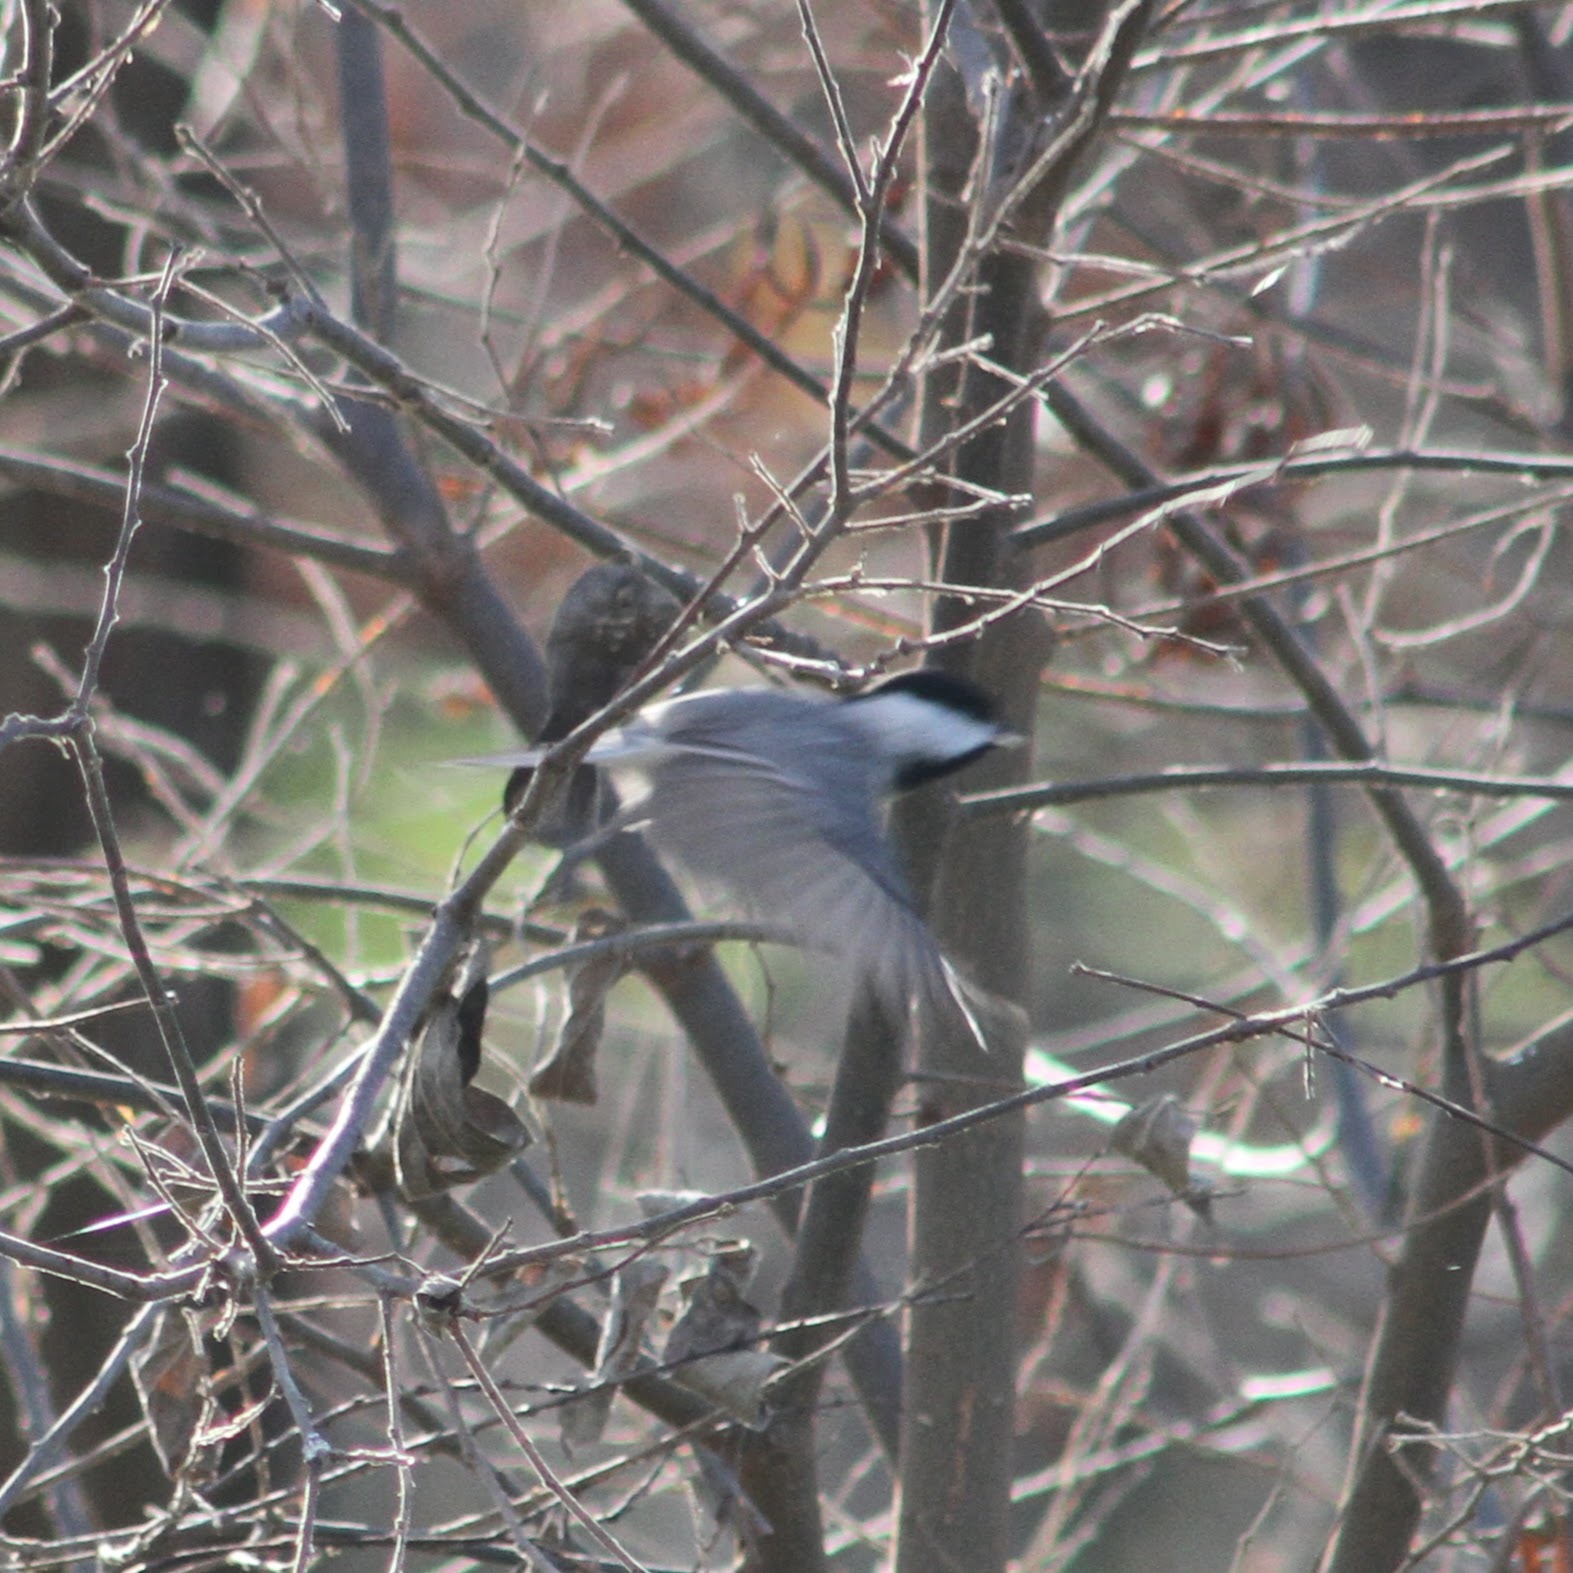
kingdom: Animalia
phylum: Chordata
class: Aves
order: Passeriformes
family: Paridae
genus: Poecile
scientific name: Poecile carolinensis
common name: Carolina chickadee
